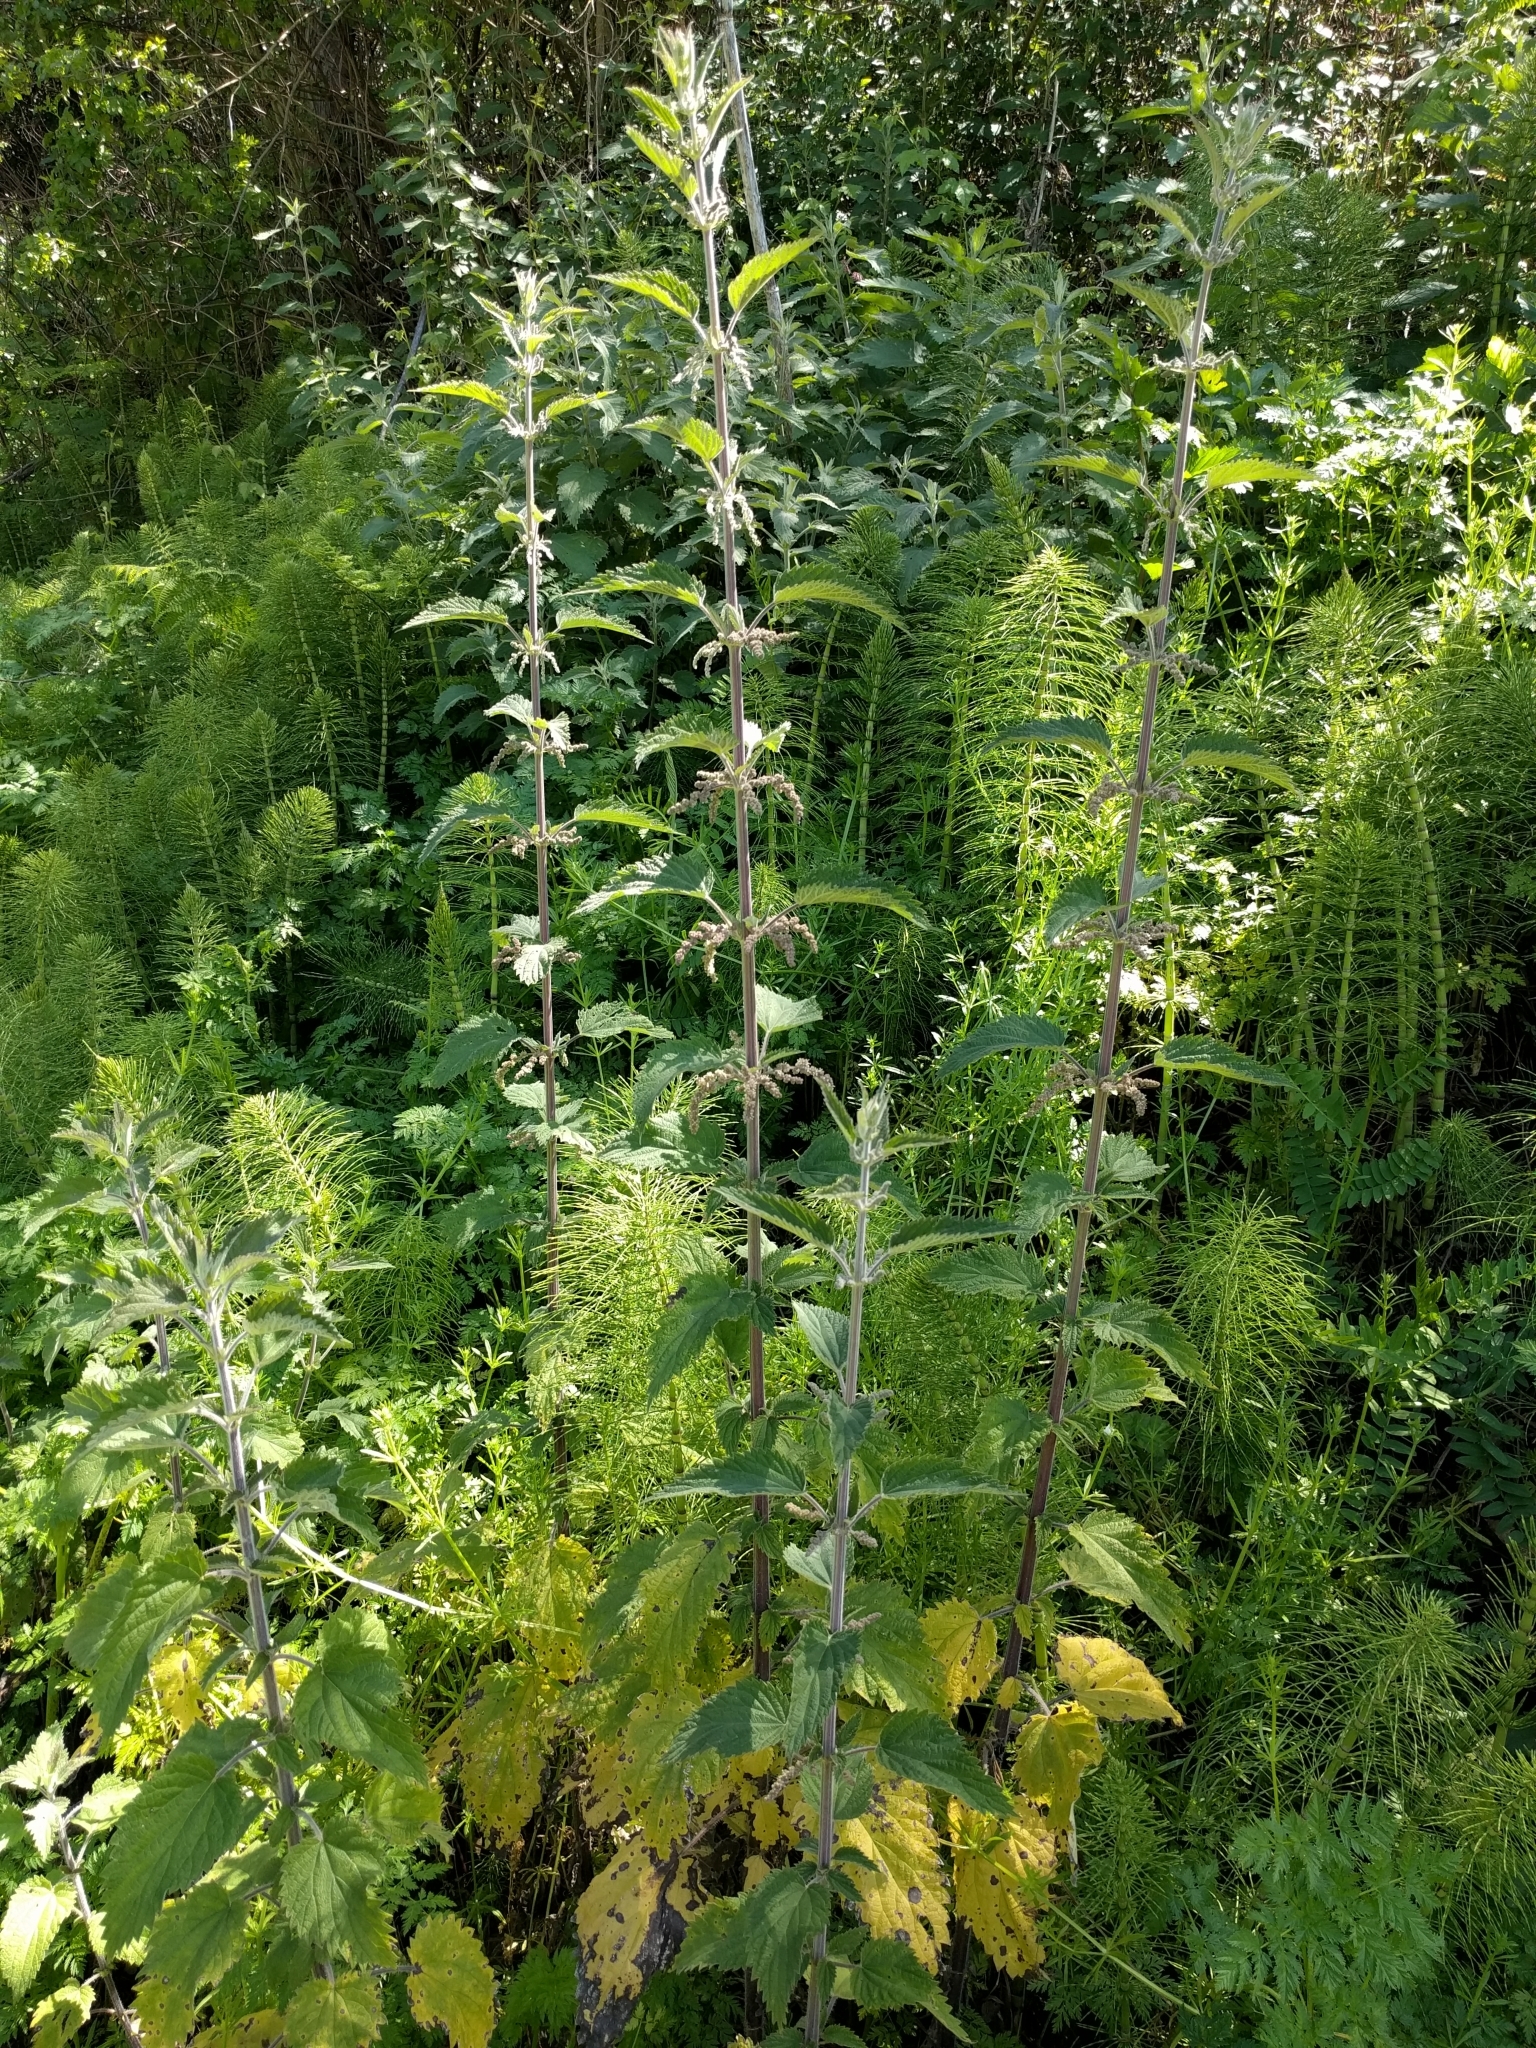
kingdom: Plantae
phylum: Tracheophyta
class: Magnoliopsida
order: Rosales
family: Urticaceae
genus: Urtica
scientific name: Urtica dioica
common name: Common nettle
